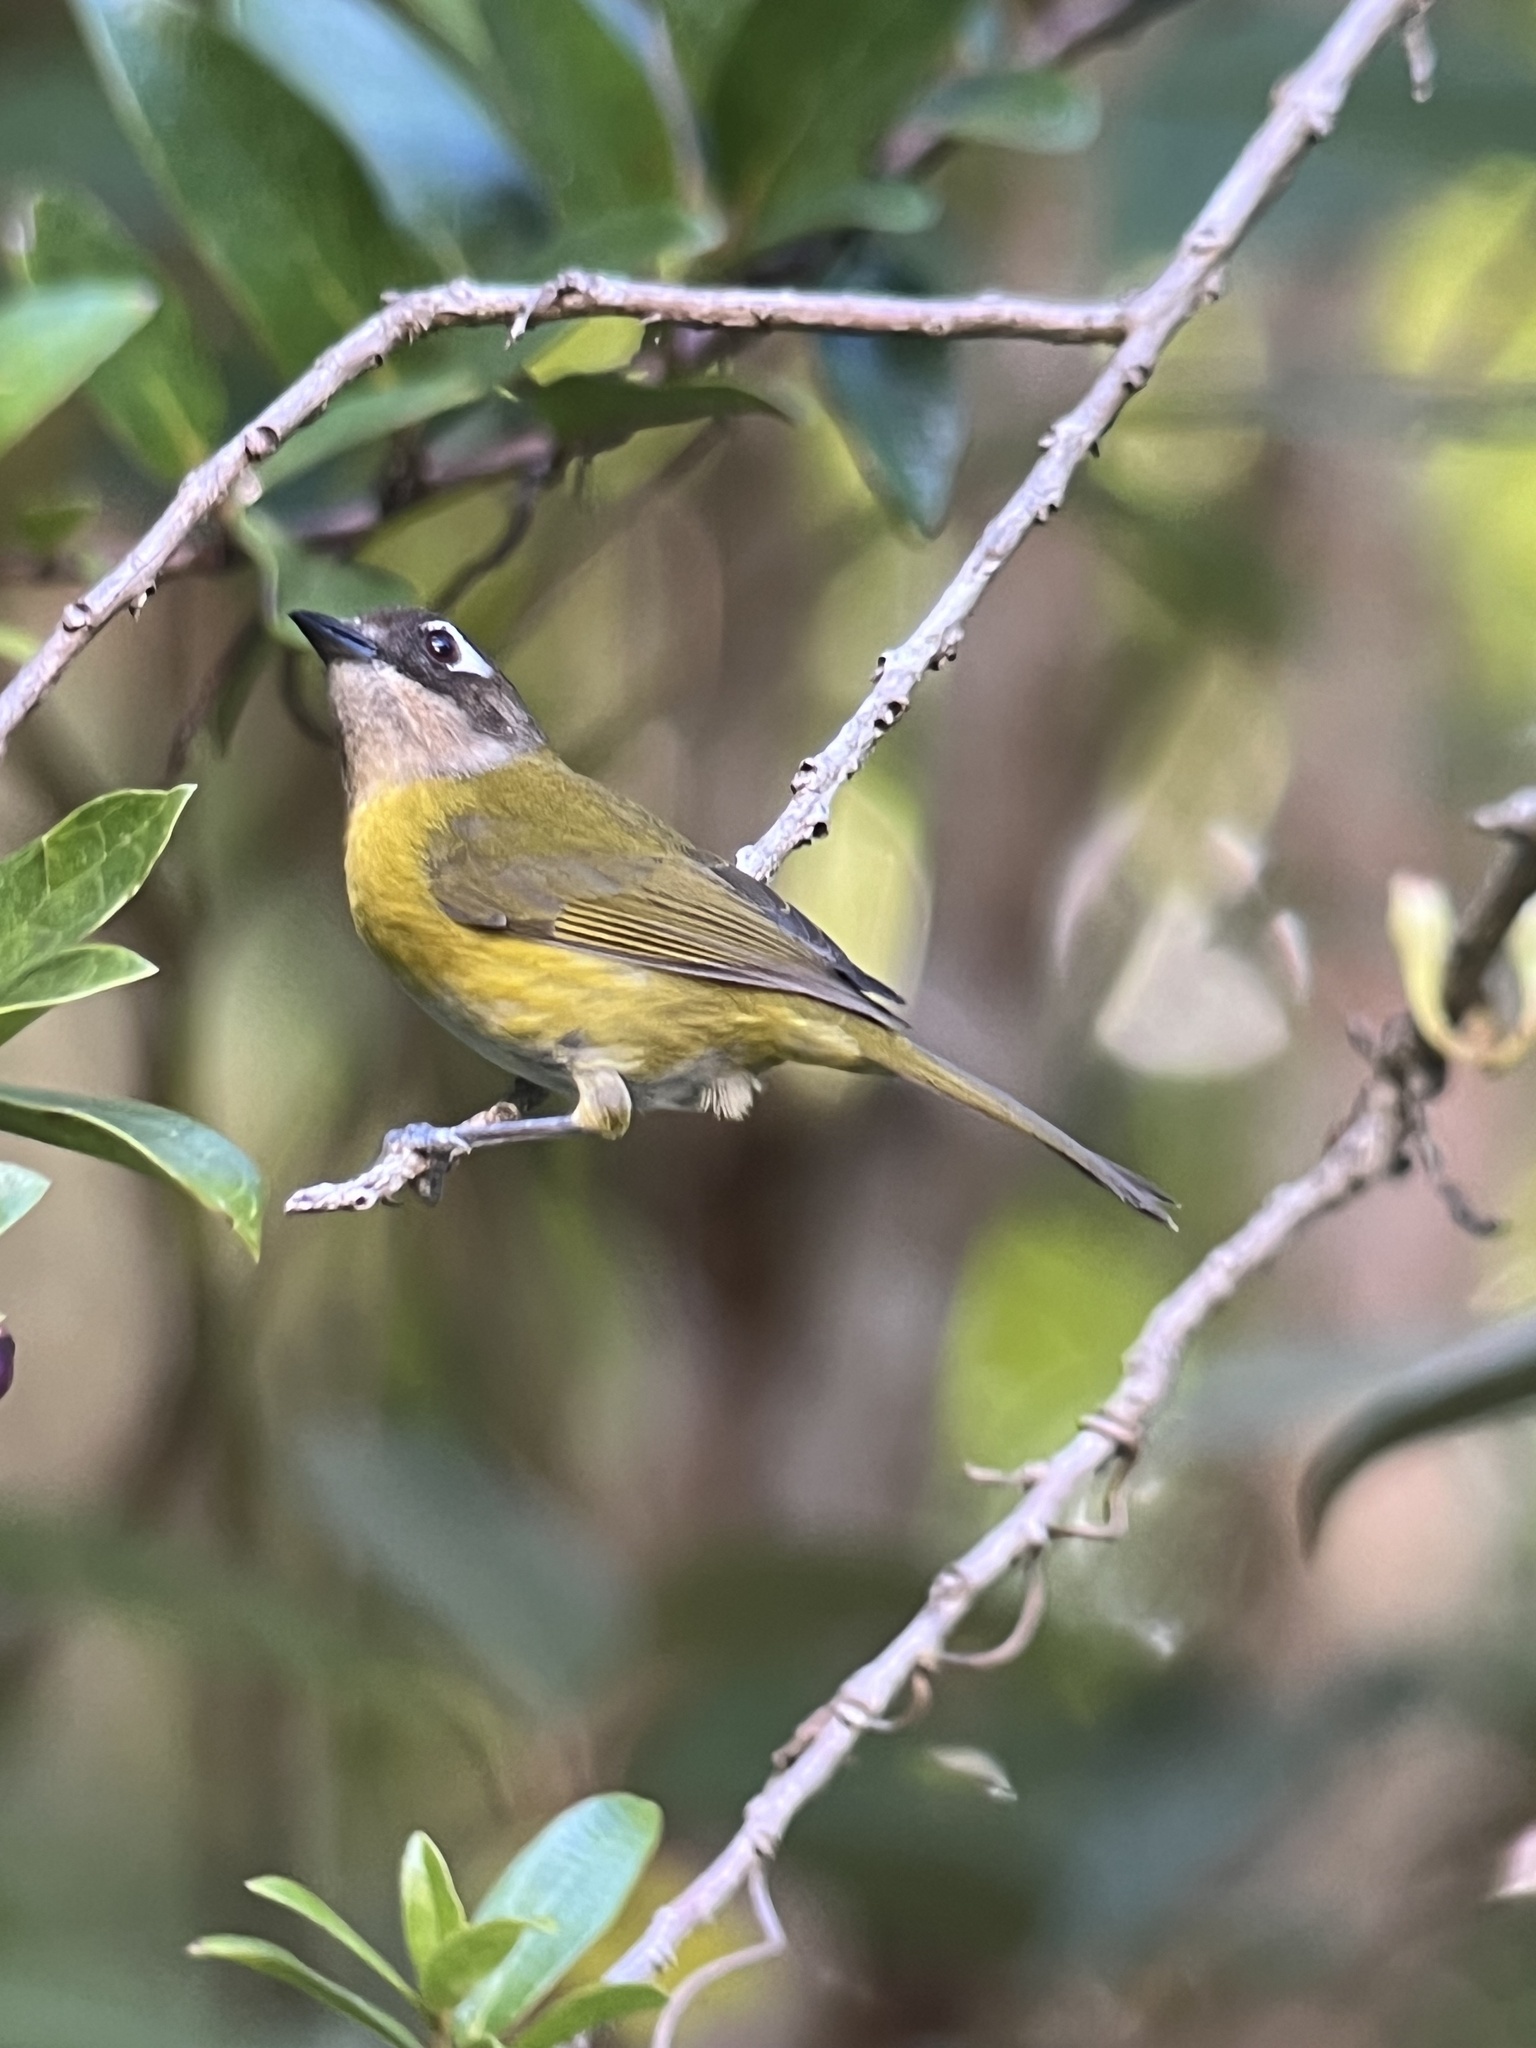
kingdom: Animalia
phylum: Chordata
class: Aves
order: Passeriformes
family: Passerellidae
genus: Chlorospingus
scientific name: Chlorospingus flavopectus
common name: Common chlorospingus
